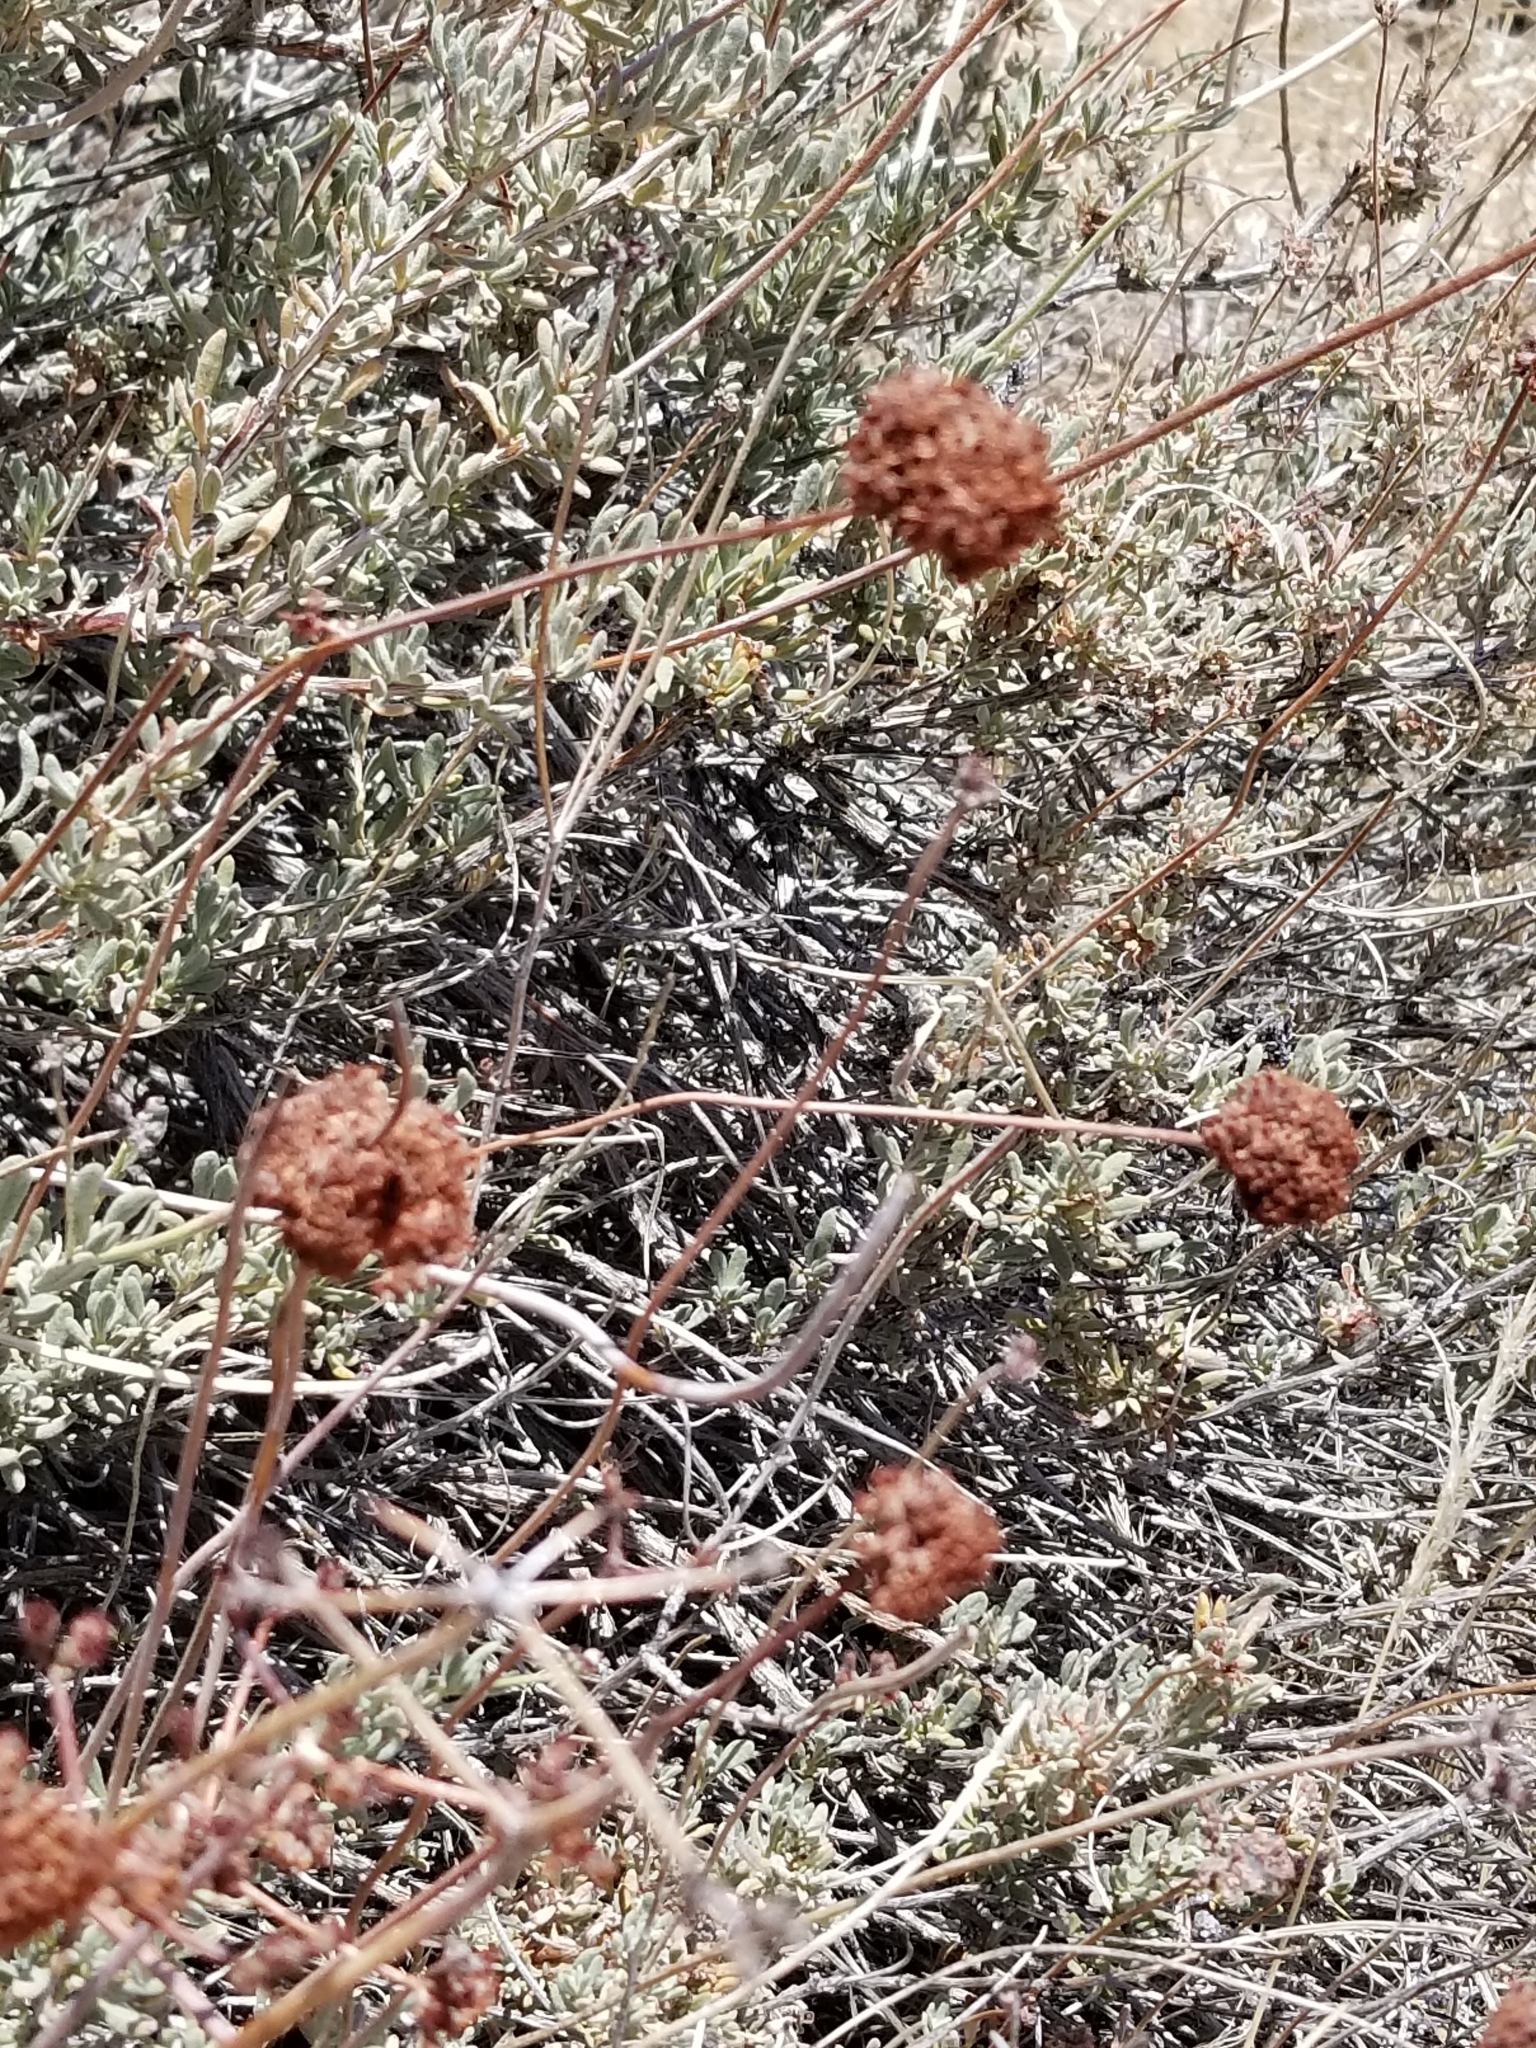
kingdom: Plantae
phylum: Tracheophyta
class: Magnoliopsida
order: Caryophyllales
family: Polygonaceae
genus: Eriogonum
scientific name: Eriogonum fasciculatum
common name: California wild buckwheat
